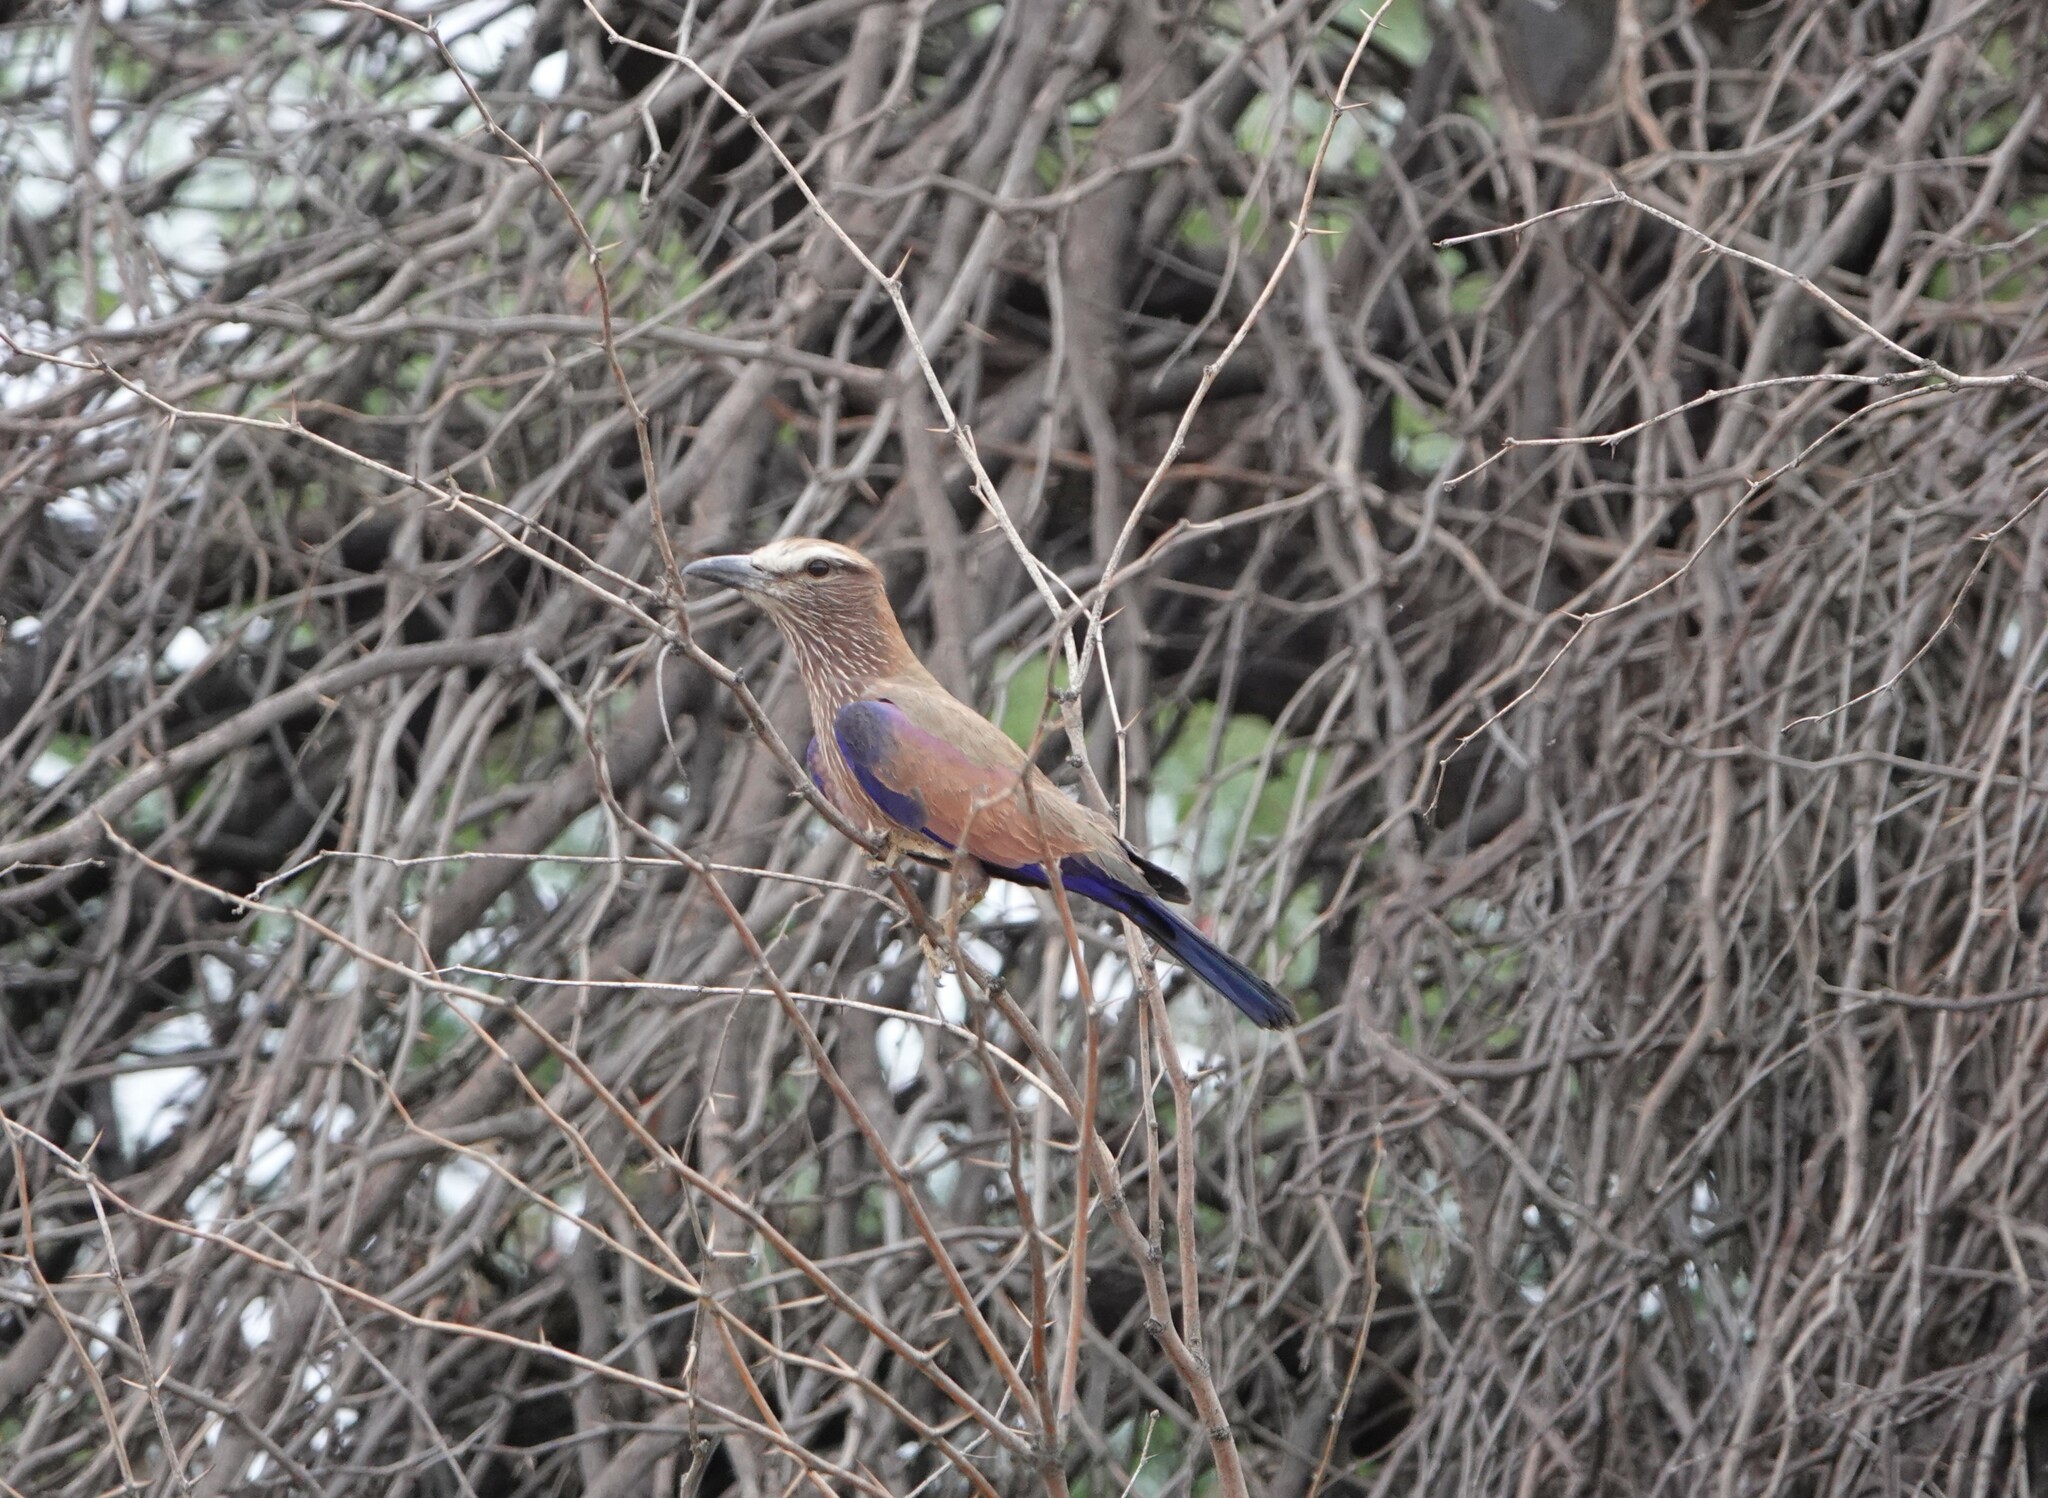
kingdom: Animalia
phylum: Chordata
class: Aves
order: Coraciiformes
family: Coraciidae
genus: Coracias
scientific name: Coracias naevius
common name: Purple roller
